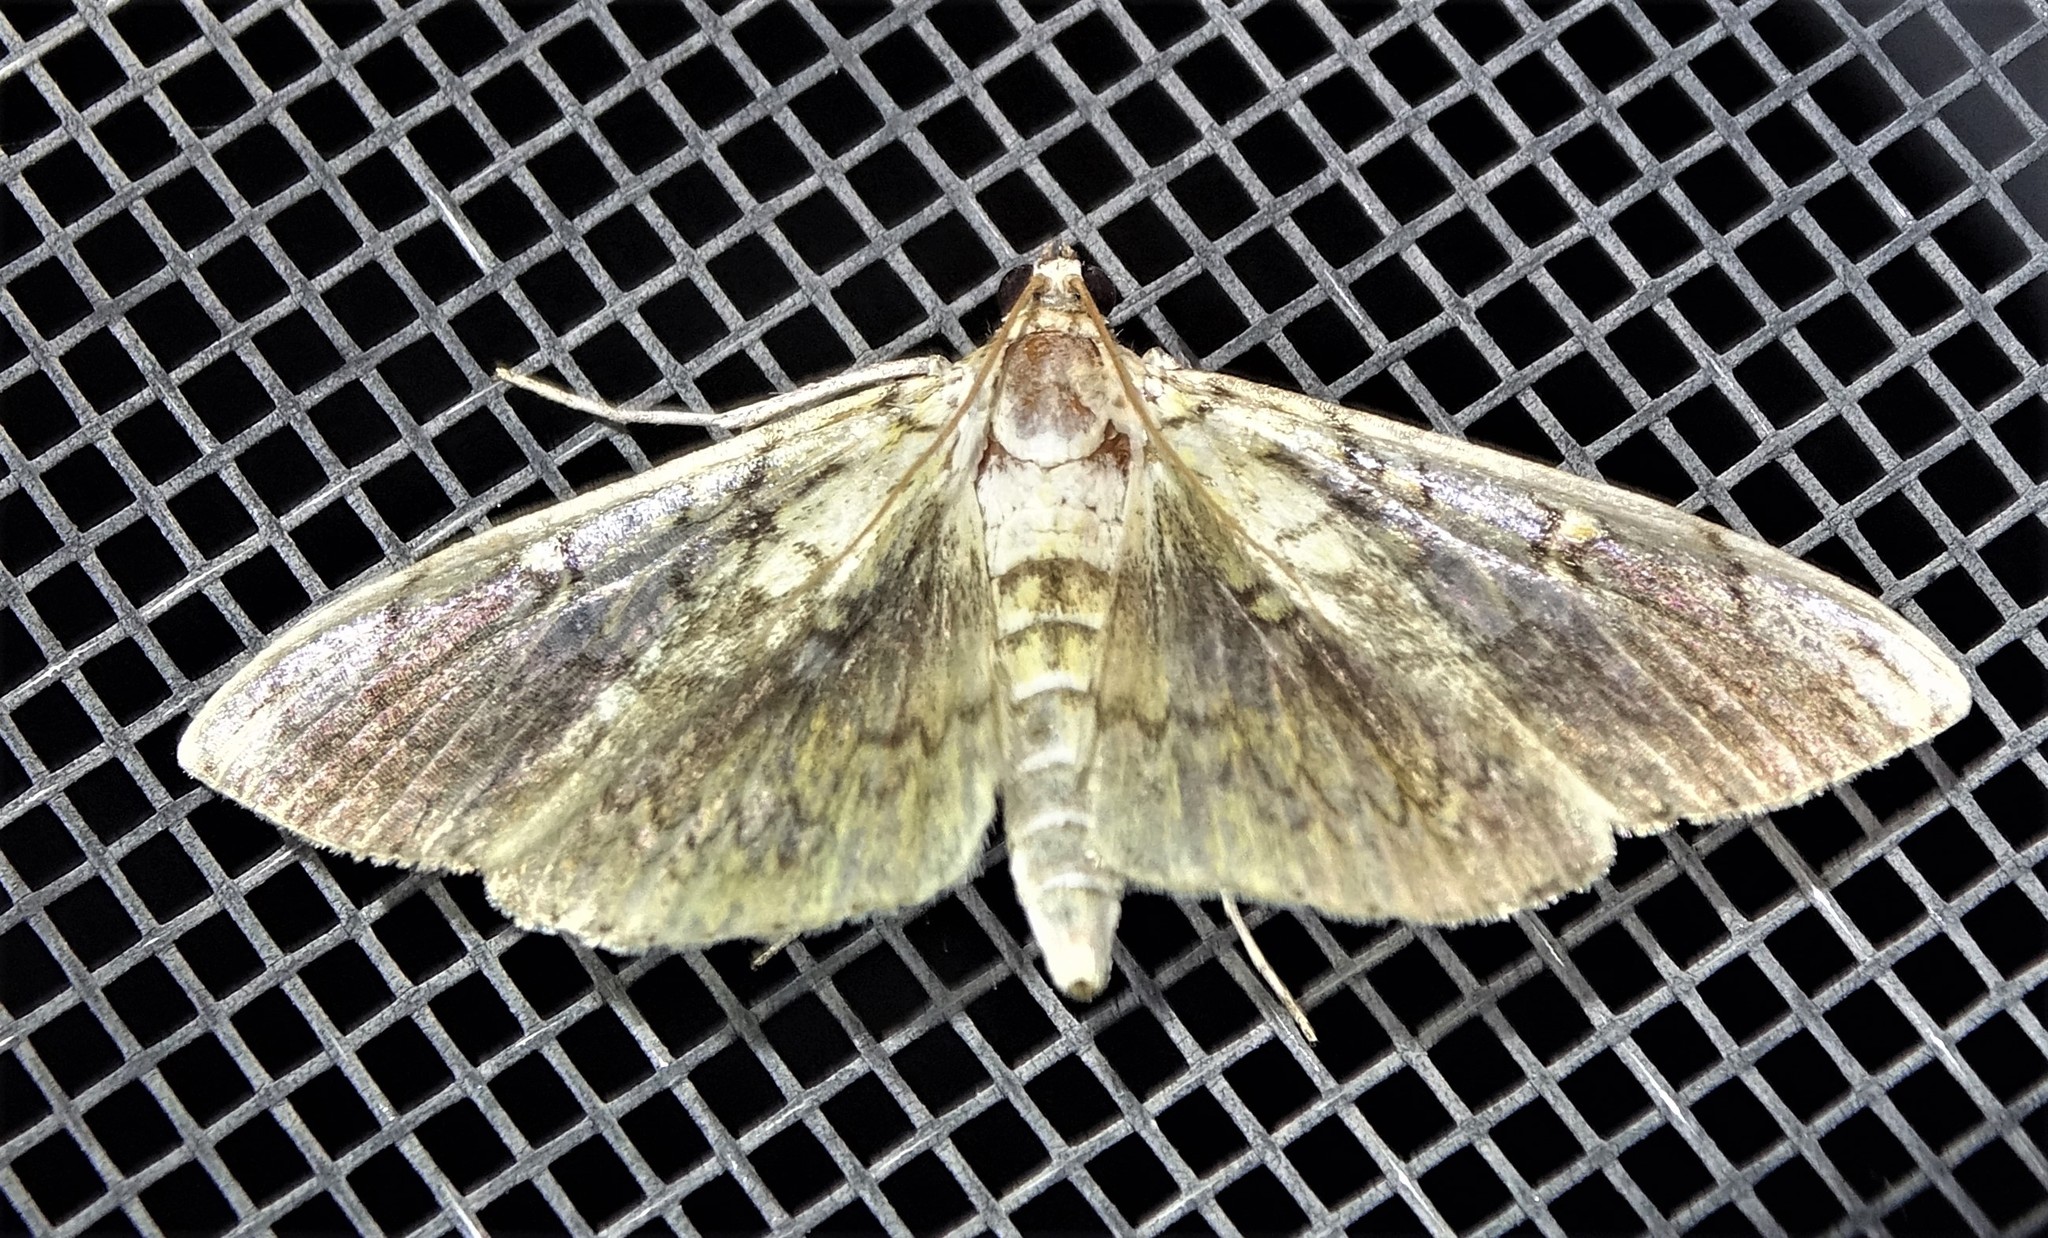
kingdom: Animalia
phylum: Arthropoda
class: Insecta
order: Lepidoptera
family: Crambidae
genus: Pantographa
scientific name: Pantographa limata
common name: Basswood leafroller moth
